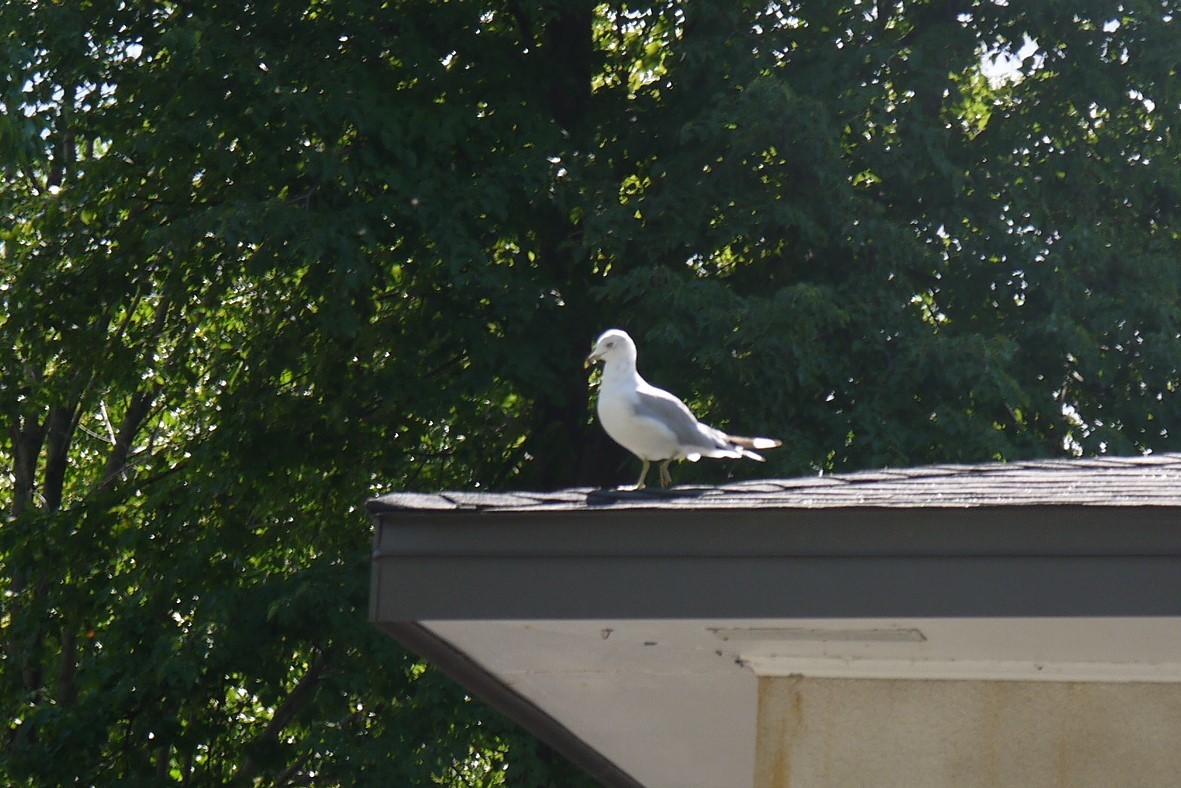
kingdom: Animalia
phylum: Chordata
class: Aves
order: Charadriiformes
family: Laridae
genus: Larus
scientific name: Larus delawarensis
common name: Ring-billed gull
